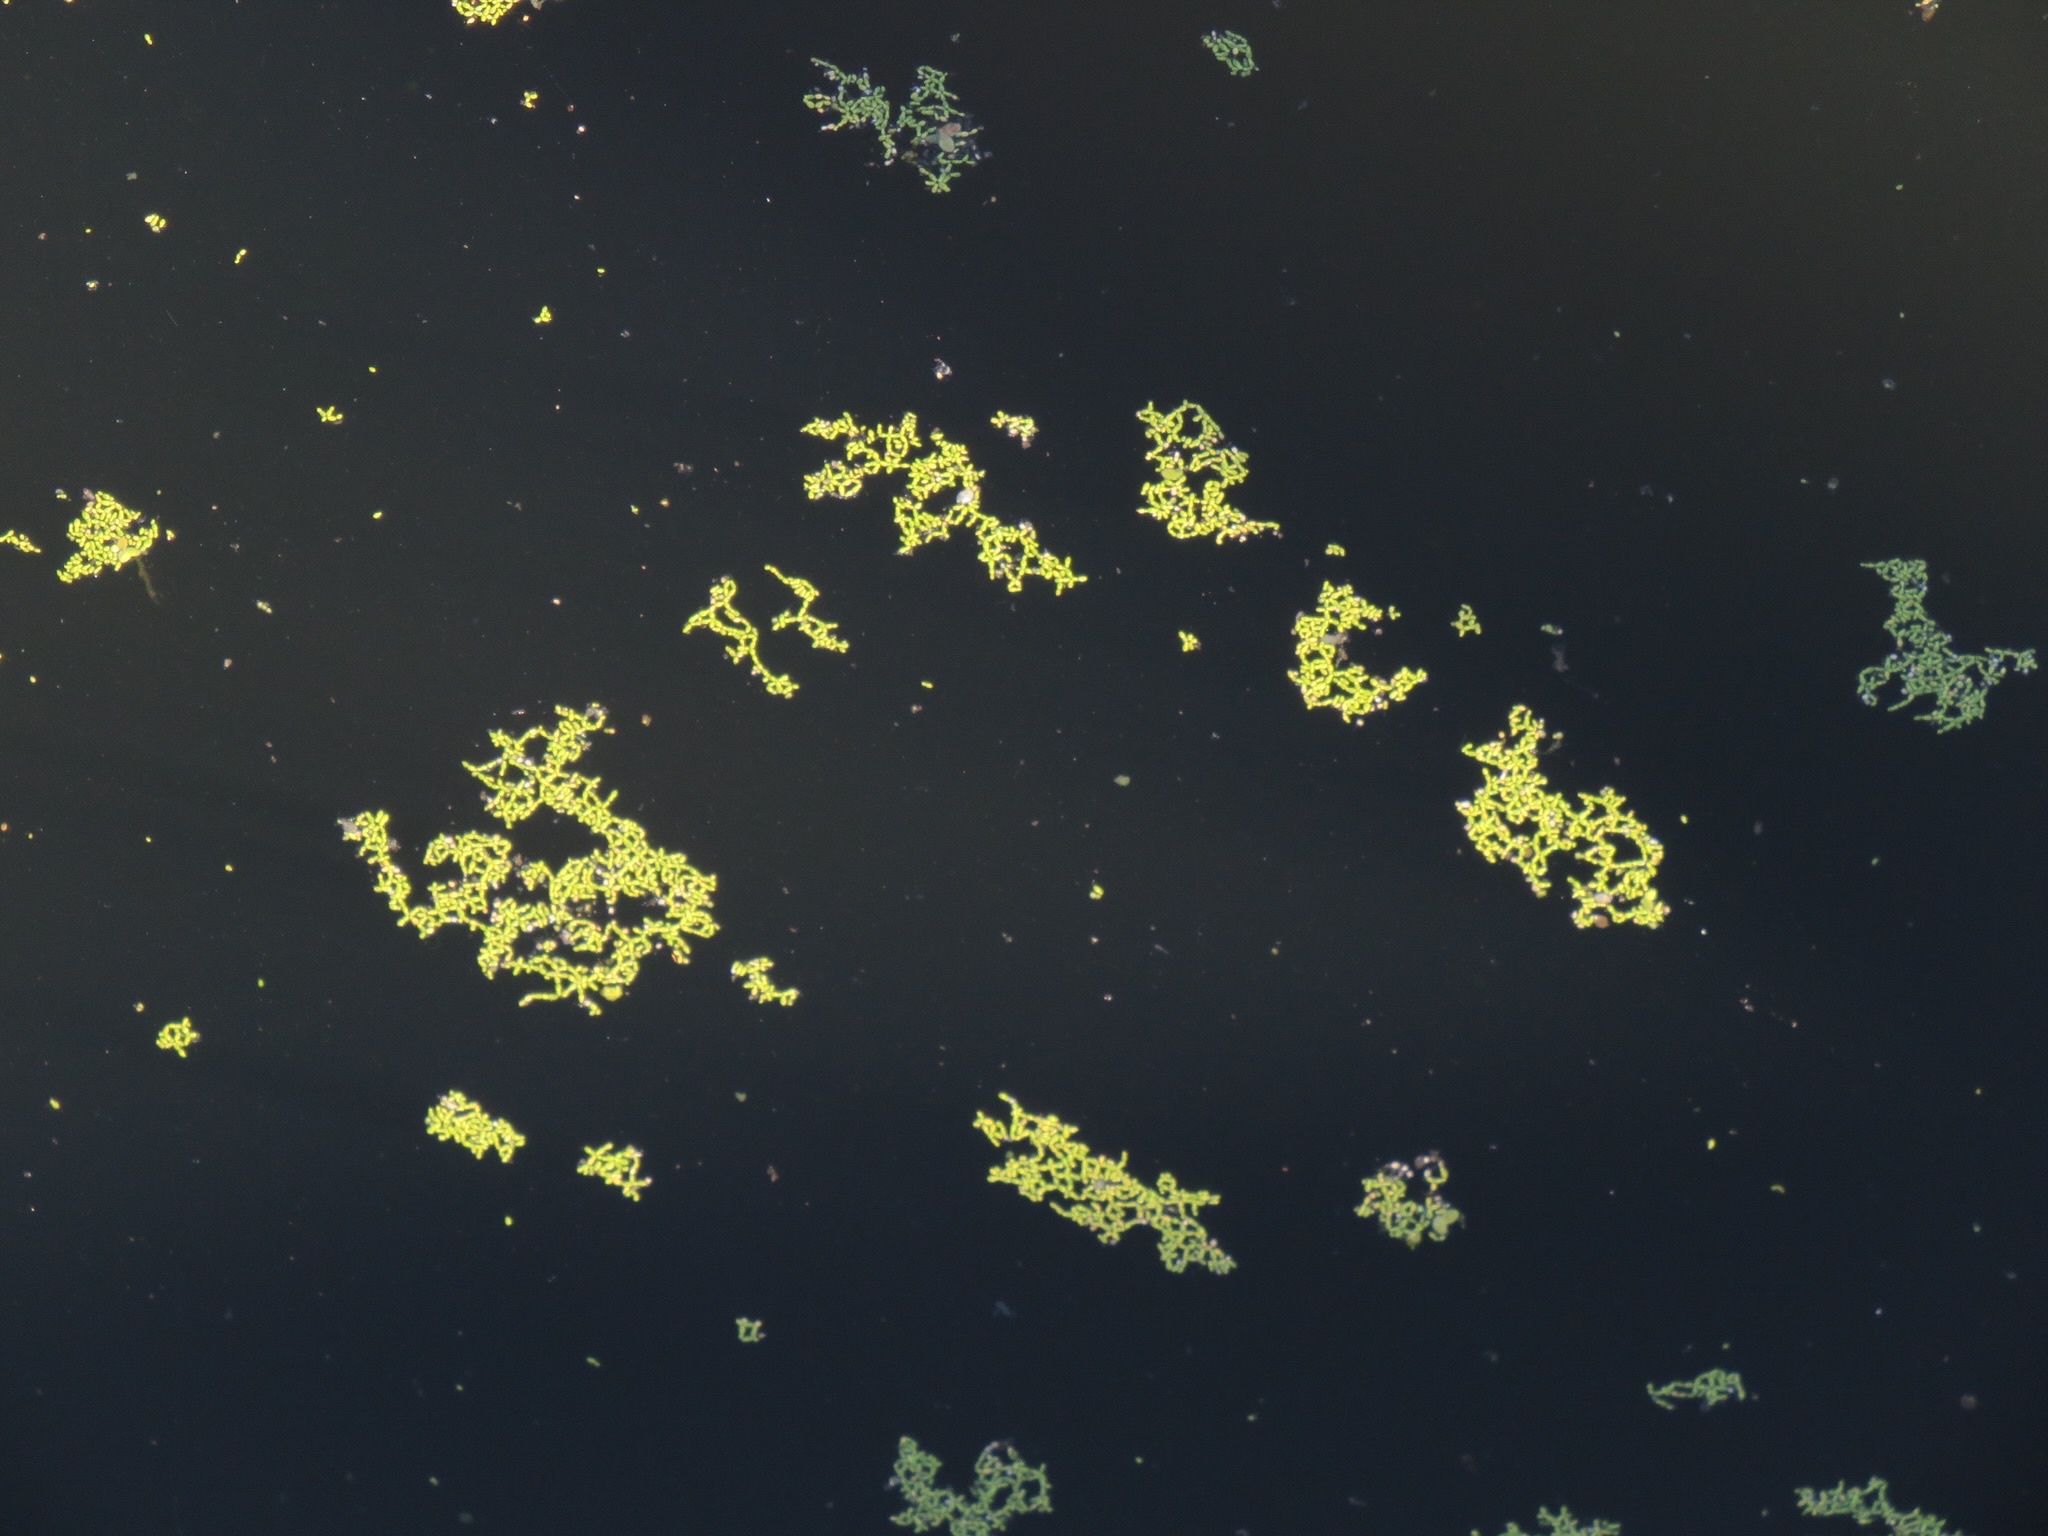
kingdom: Plantae
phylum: Tracheophyta
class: Liliopsida
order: Alismatales
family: Araceae
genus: Lemna
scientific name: Lemna minor
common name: Common duckweed
